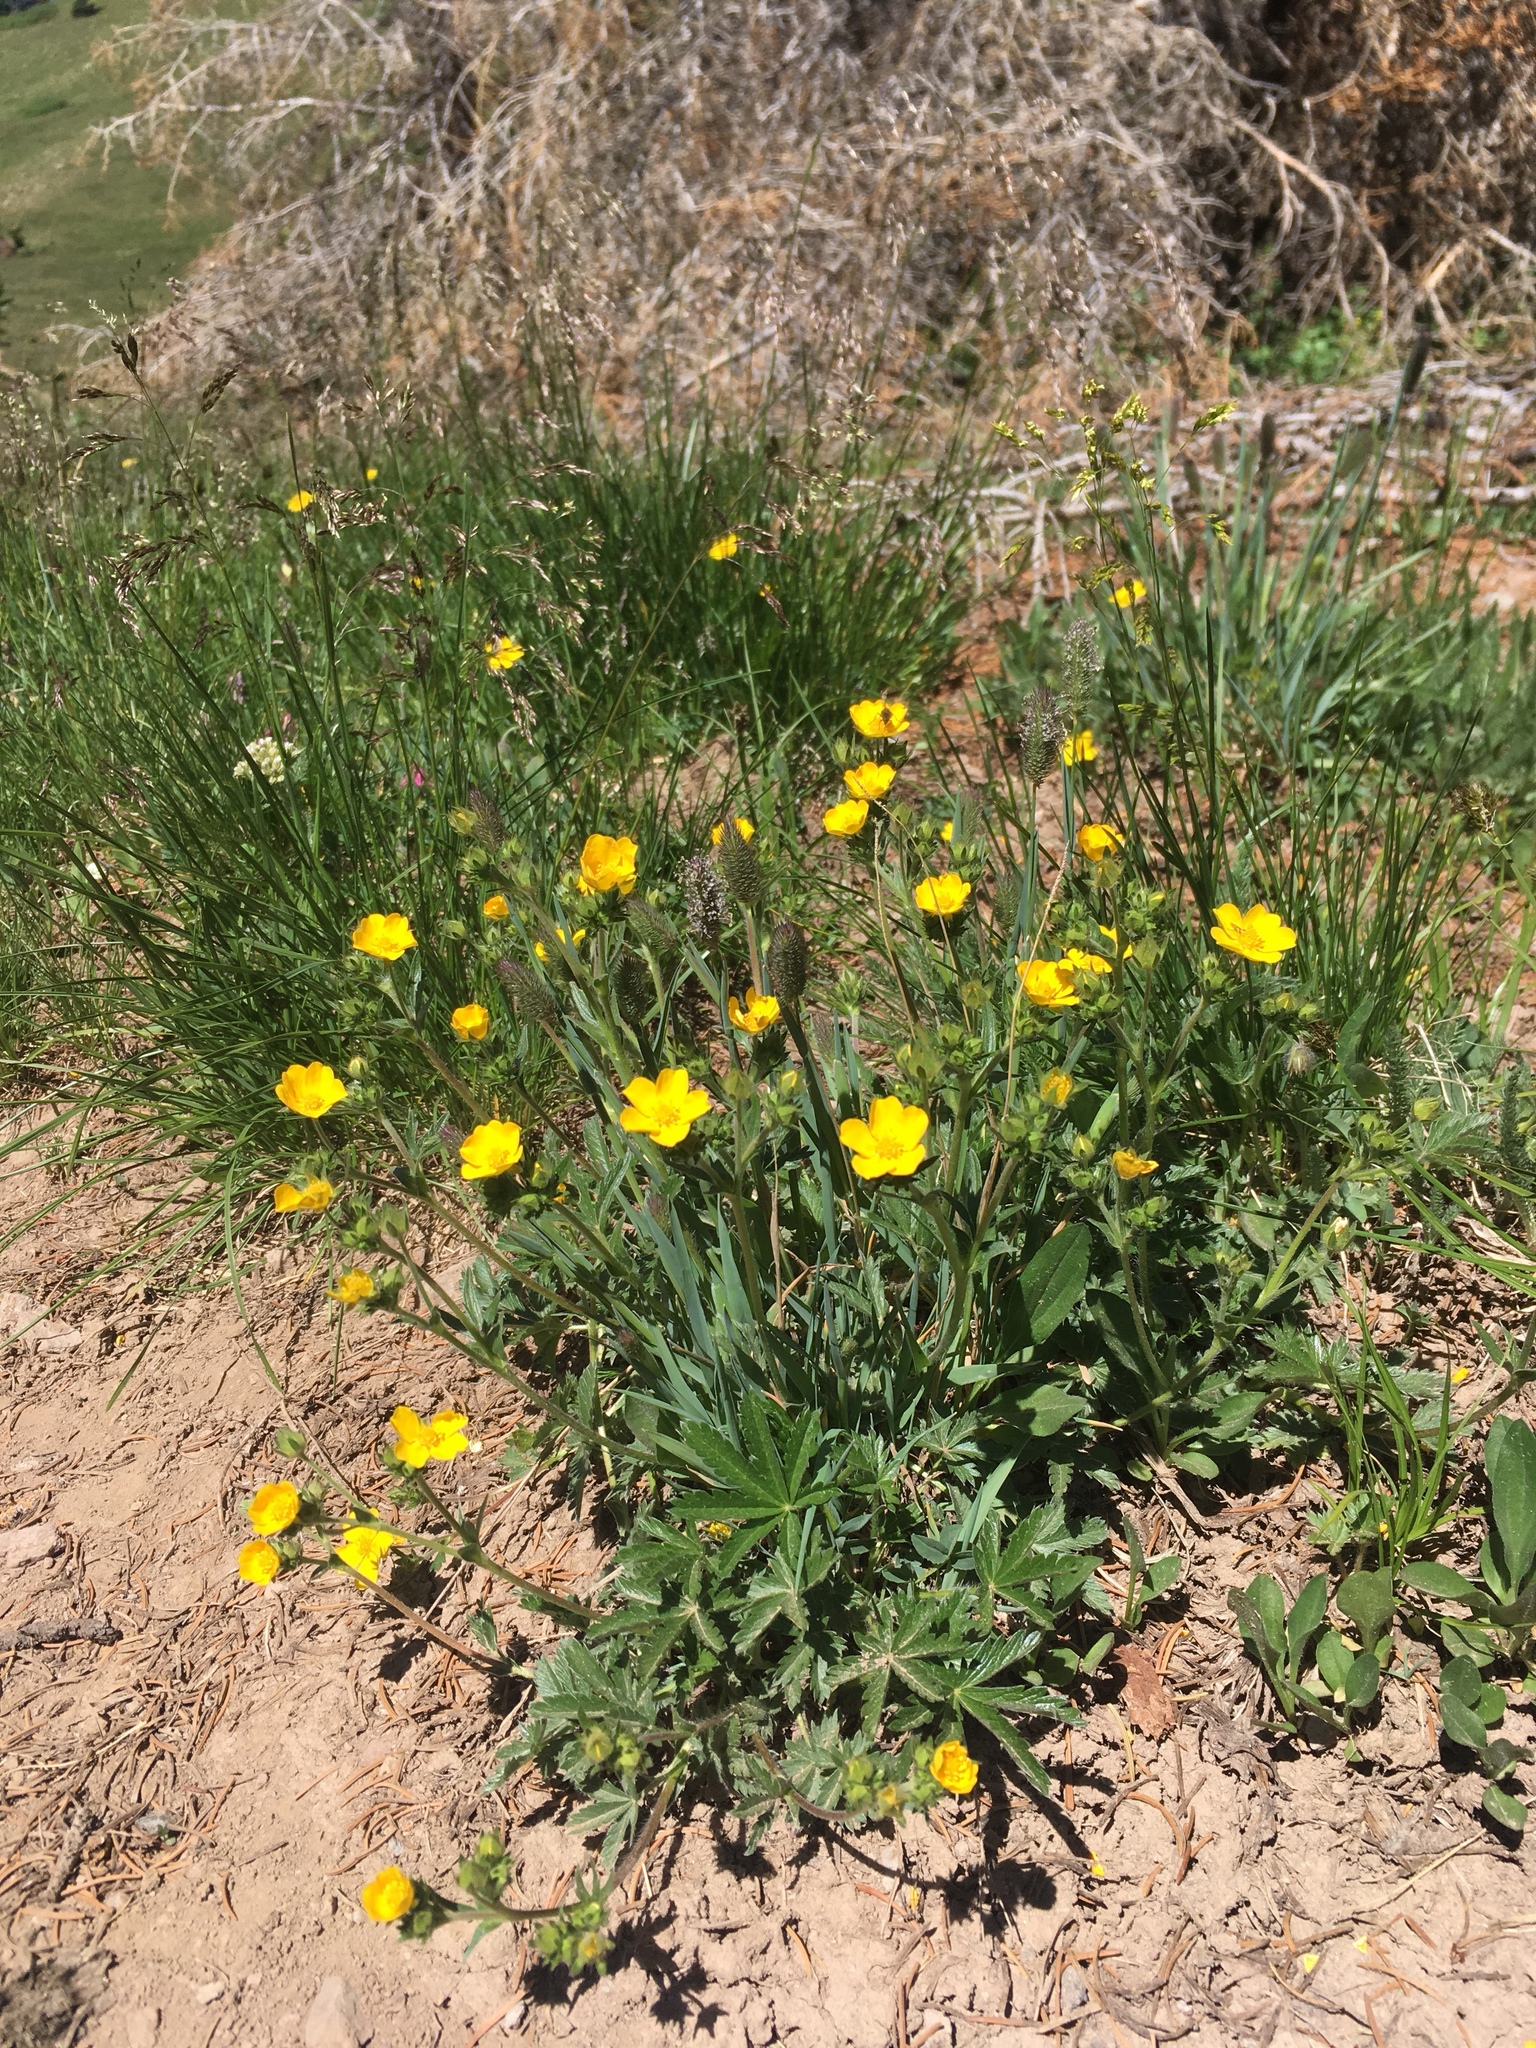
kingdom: Plantae
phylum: Tracheophyta
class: Magnoliopsida
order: Rosales
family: Rosaceae
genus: Potentilla
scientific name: Potentilla gracilis
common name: Graceful cinquefoil
